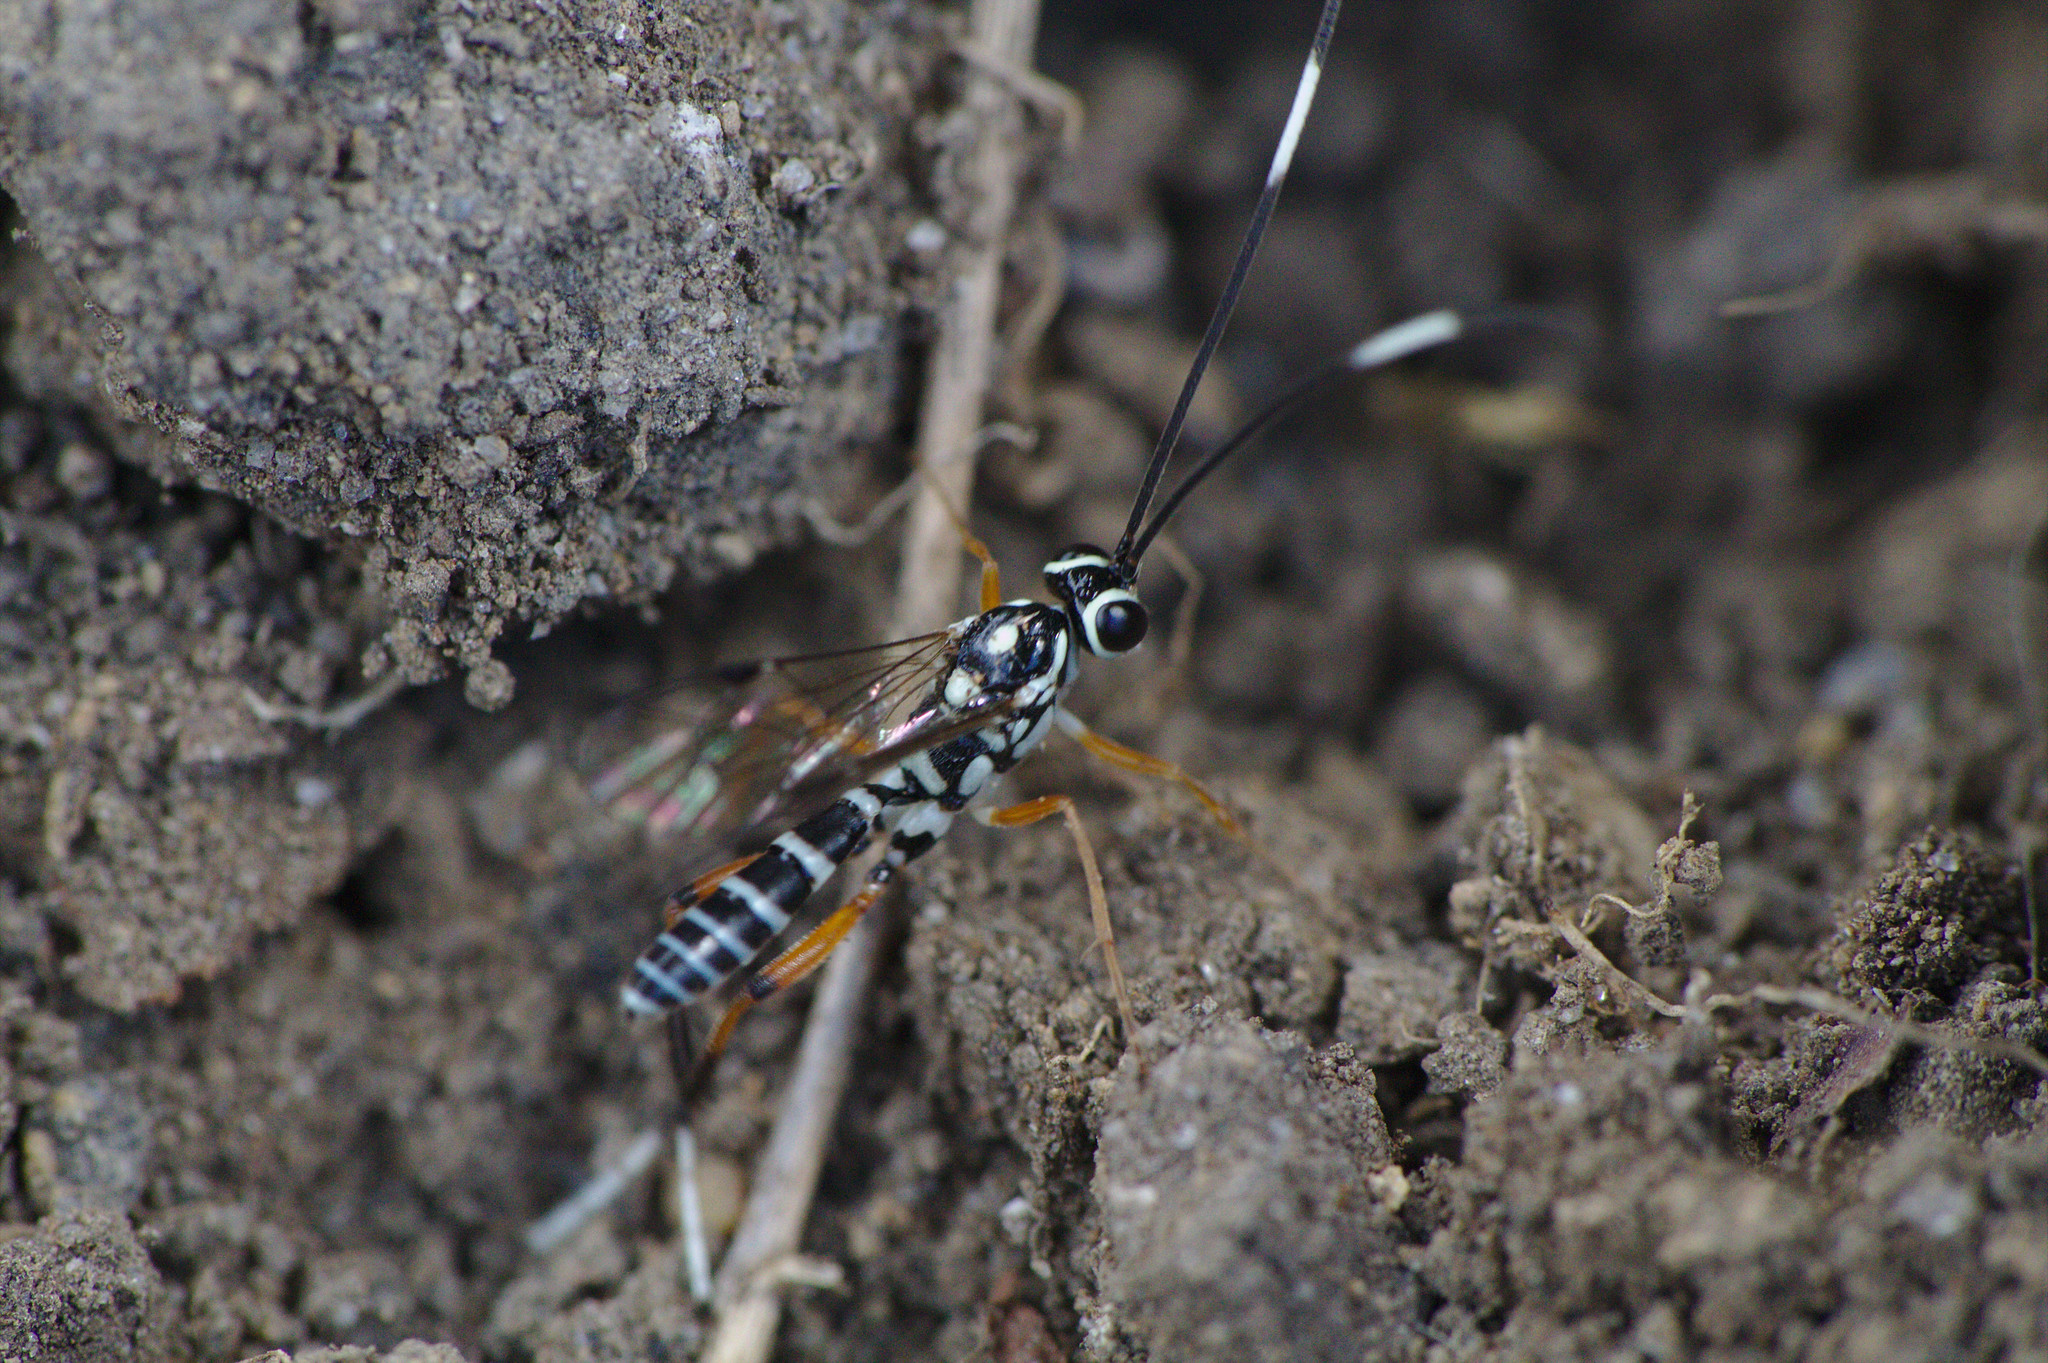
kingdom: Animalia
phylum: Arthropoda
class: Insecta
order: Hymenoptera
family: Ichneumonidae
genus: Glabridorsum
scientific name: Glabridorsum stokesii
